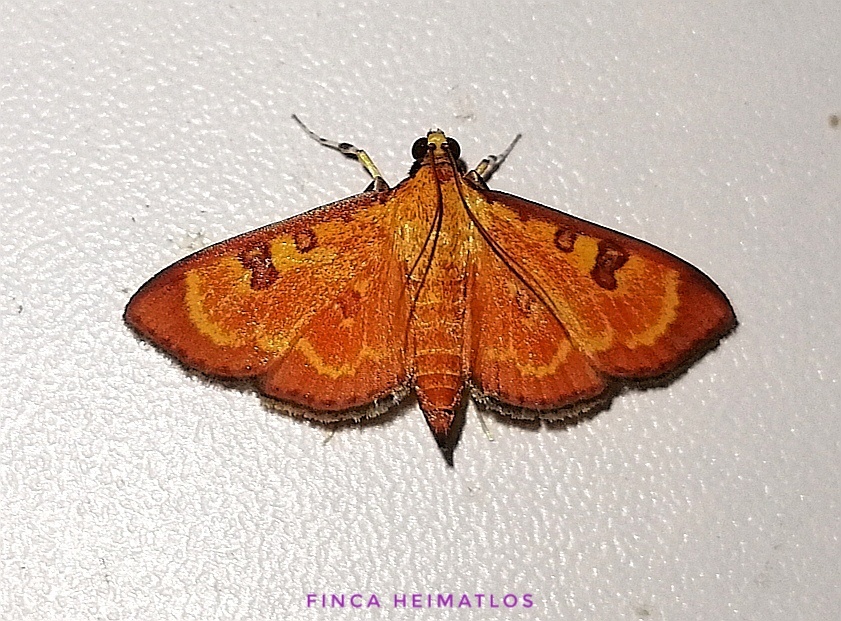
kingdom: Animalia
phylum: Arthropoda
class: Insecta
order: Lepidoptera
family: Crambidae
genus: Trithyris
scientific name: Trithyris
